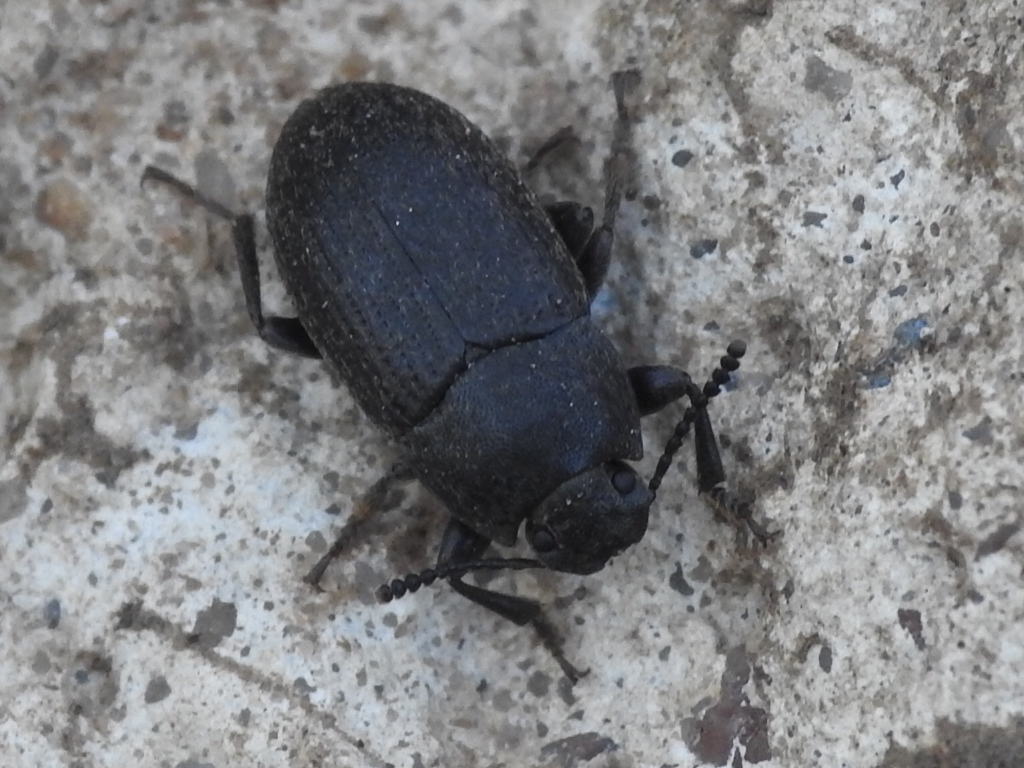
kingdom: Animalia
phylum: Arthropoda
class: Insecta
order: Coleoptera
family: Tenebrionidae
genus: Blapstinus
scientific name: Blapstinus fortis
